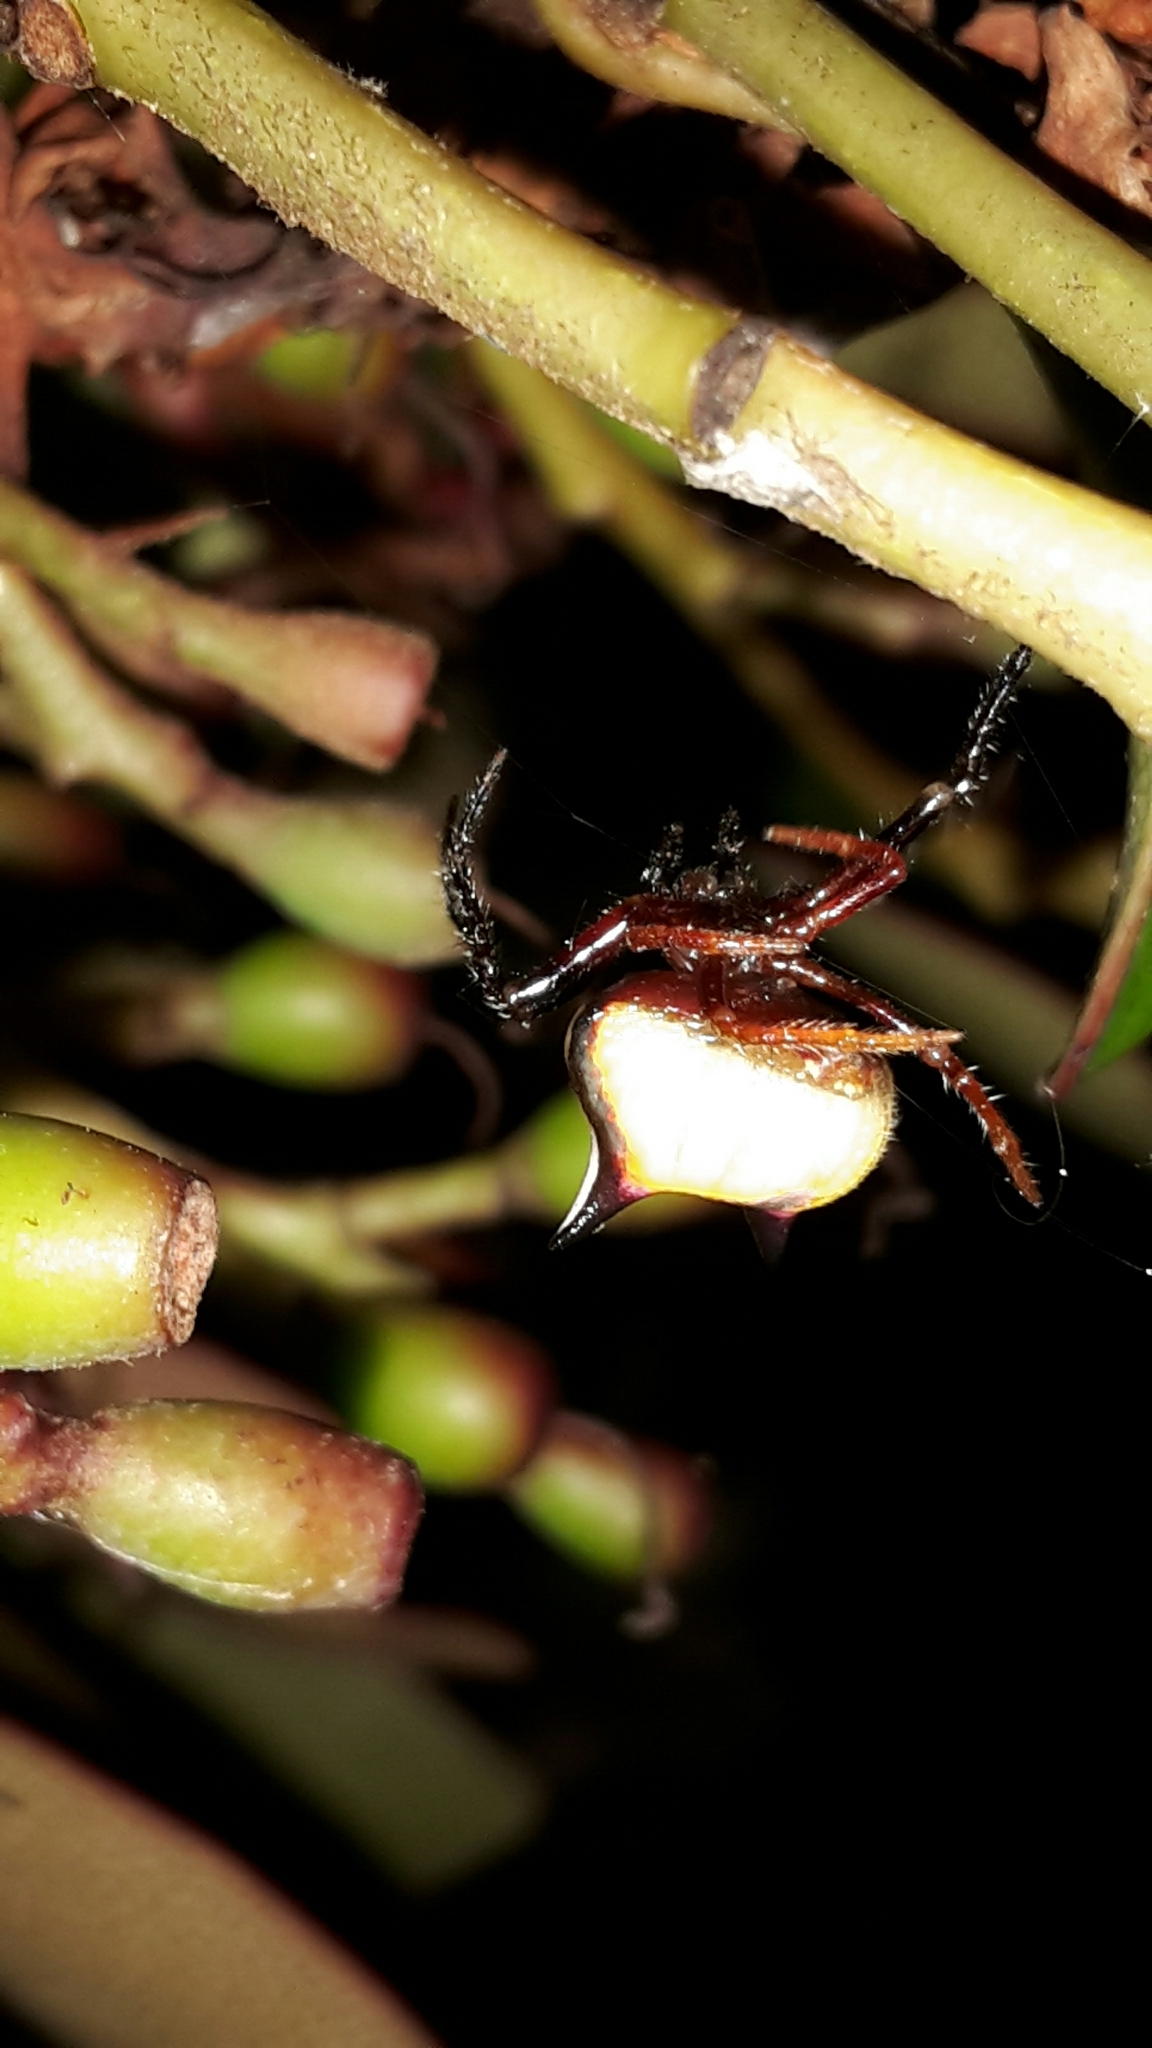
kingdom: Animalia
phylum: Arthropoda
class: Arachnida
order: Araneae
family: Araneidae
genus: Poecilopachys
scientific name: Poecilopachys australasia
